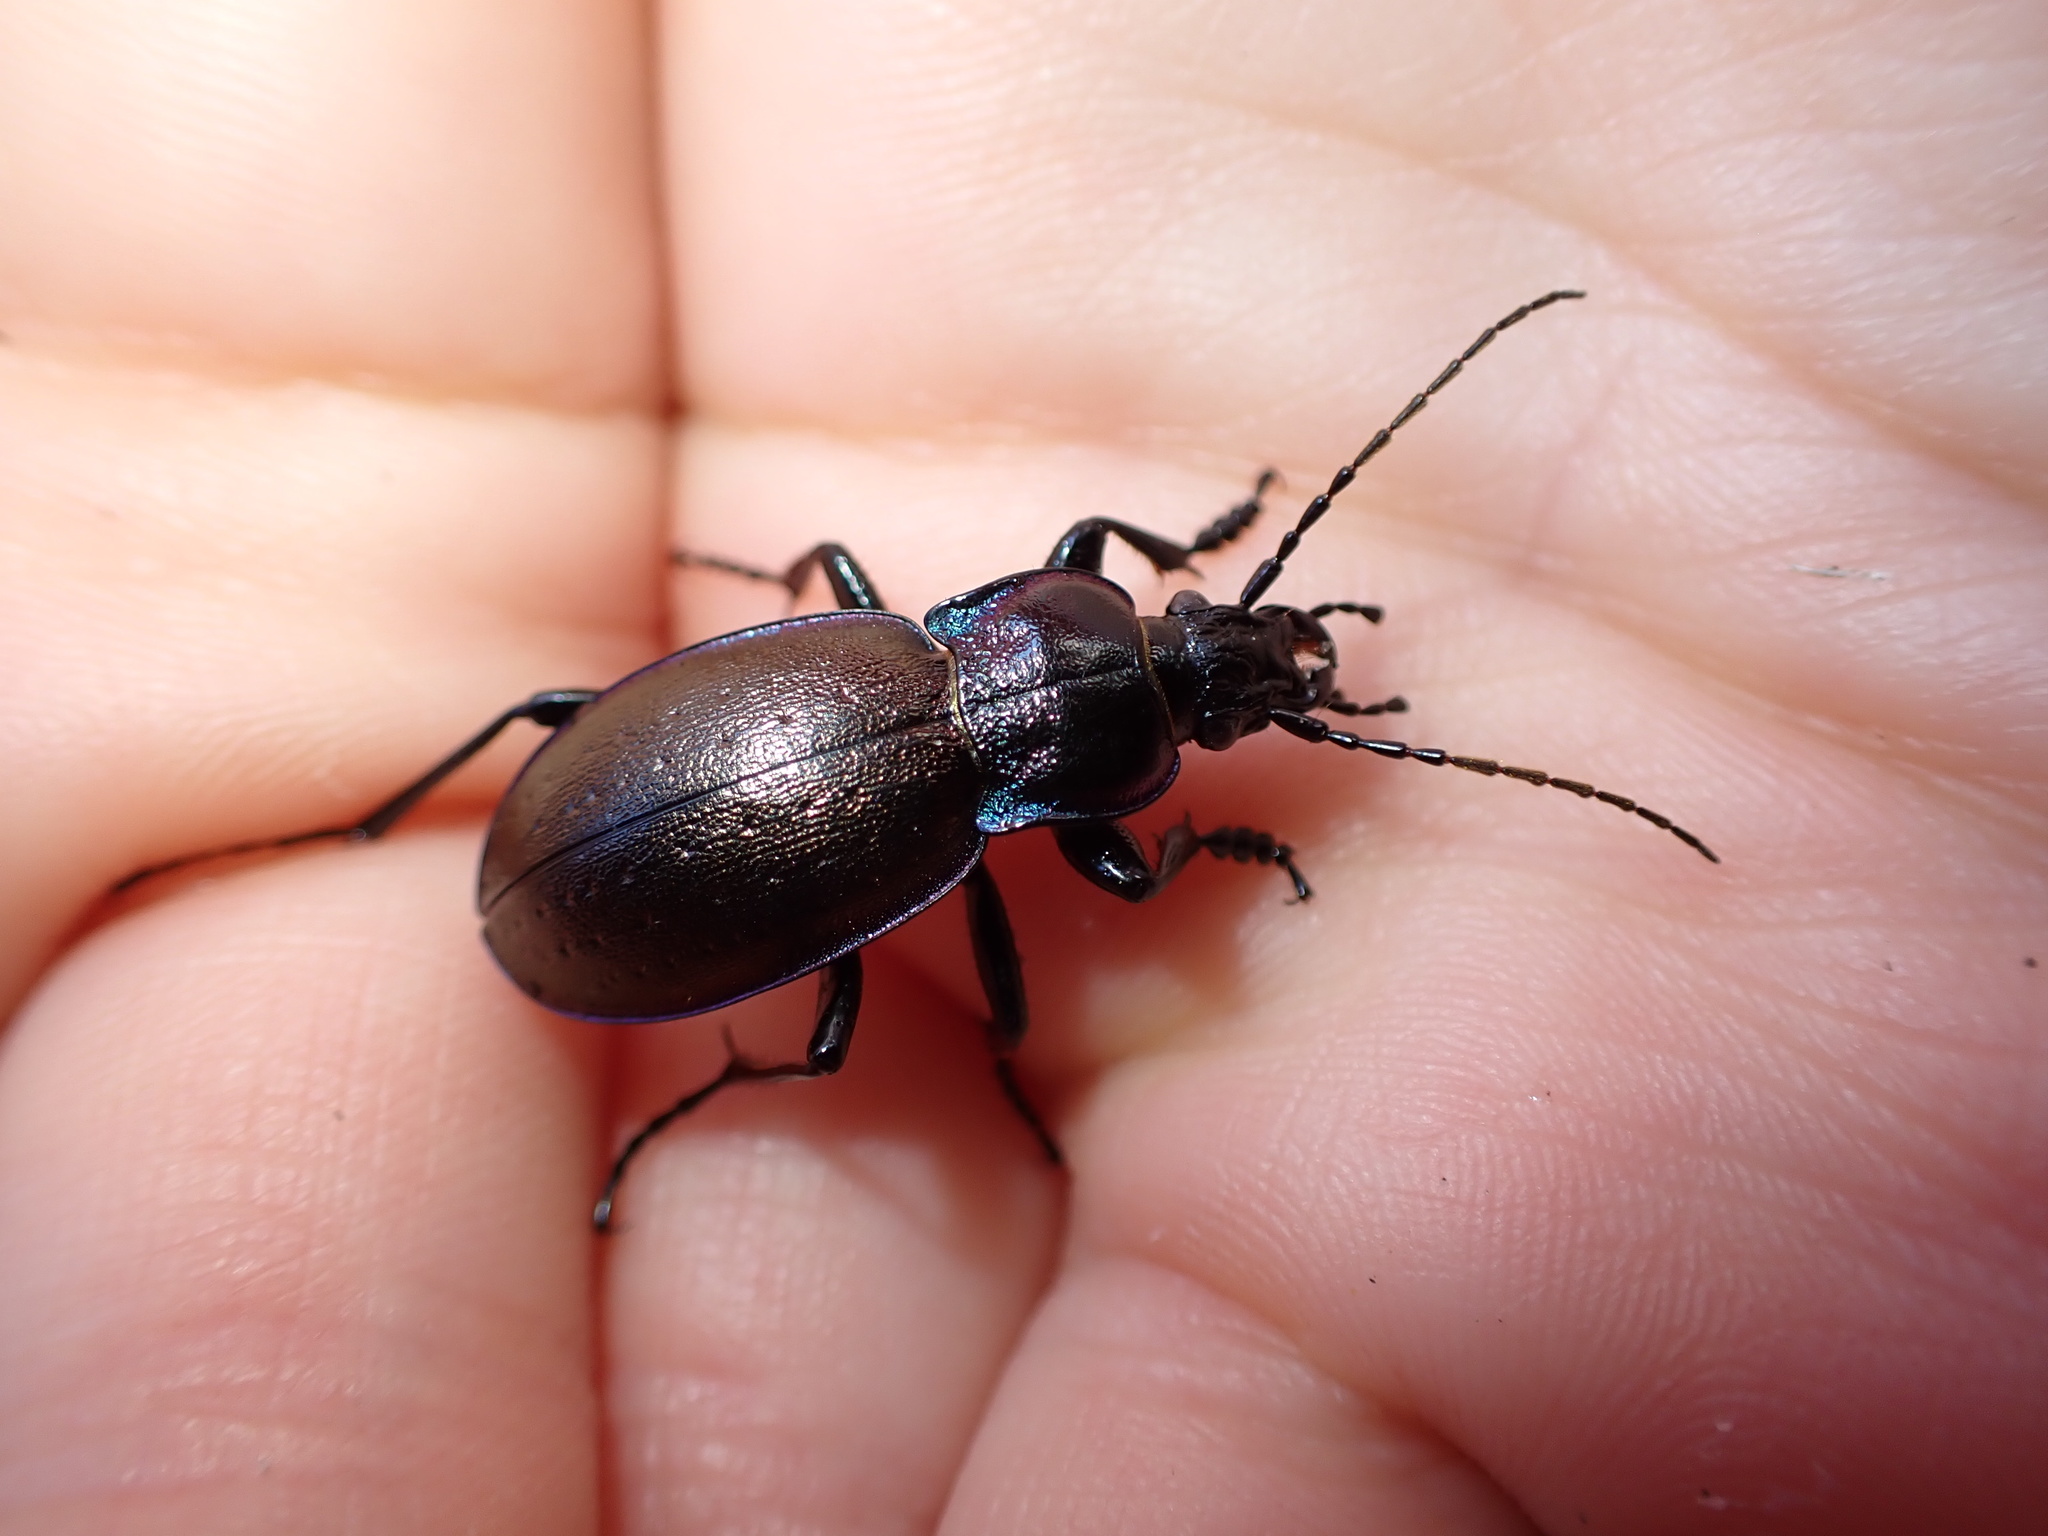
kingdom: Animalia
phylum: Arthropoda
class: Insecta
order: Coleoptera
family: Carabidae
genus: Carabus
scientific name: Carabus nemoralis
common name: European ground beetle
